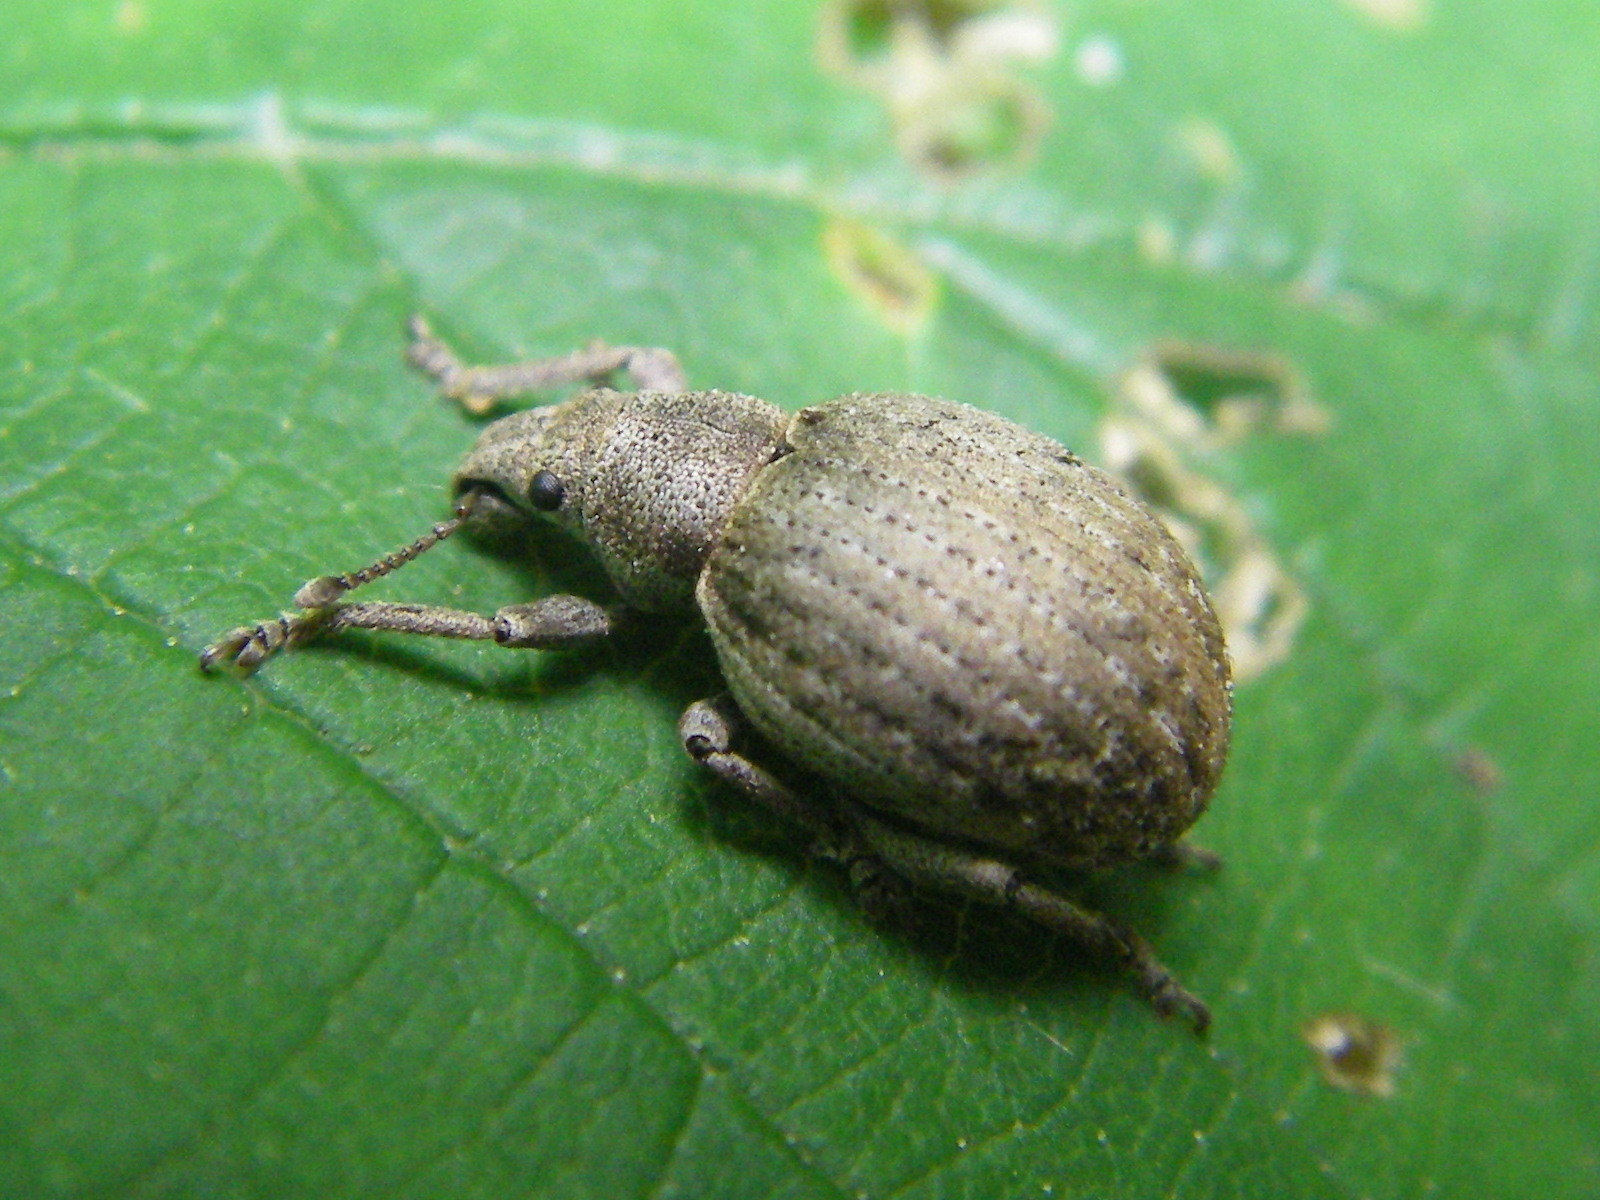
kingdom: Animalia
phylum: Arthropoda
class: Insecta
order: Coleoptera
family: Curculionidae
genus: Philopedon
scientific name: Philopedon plagiatum
